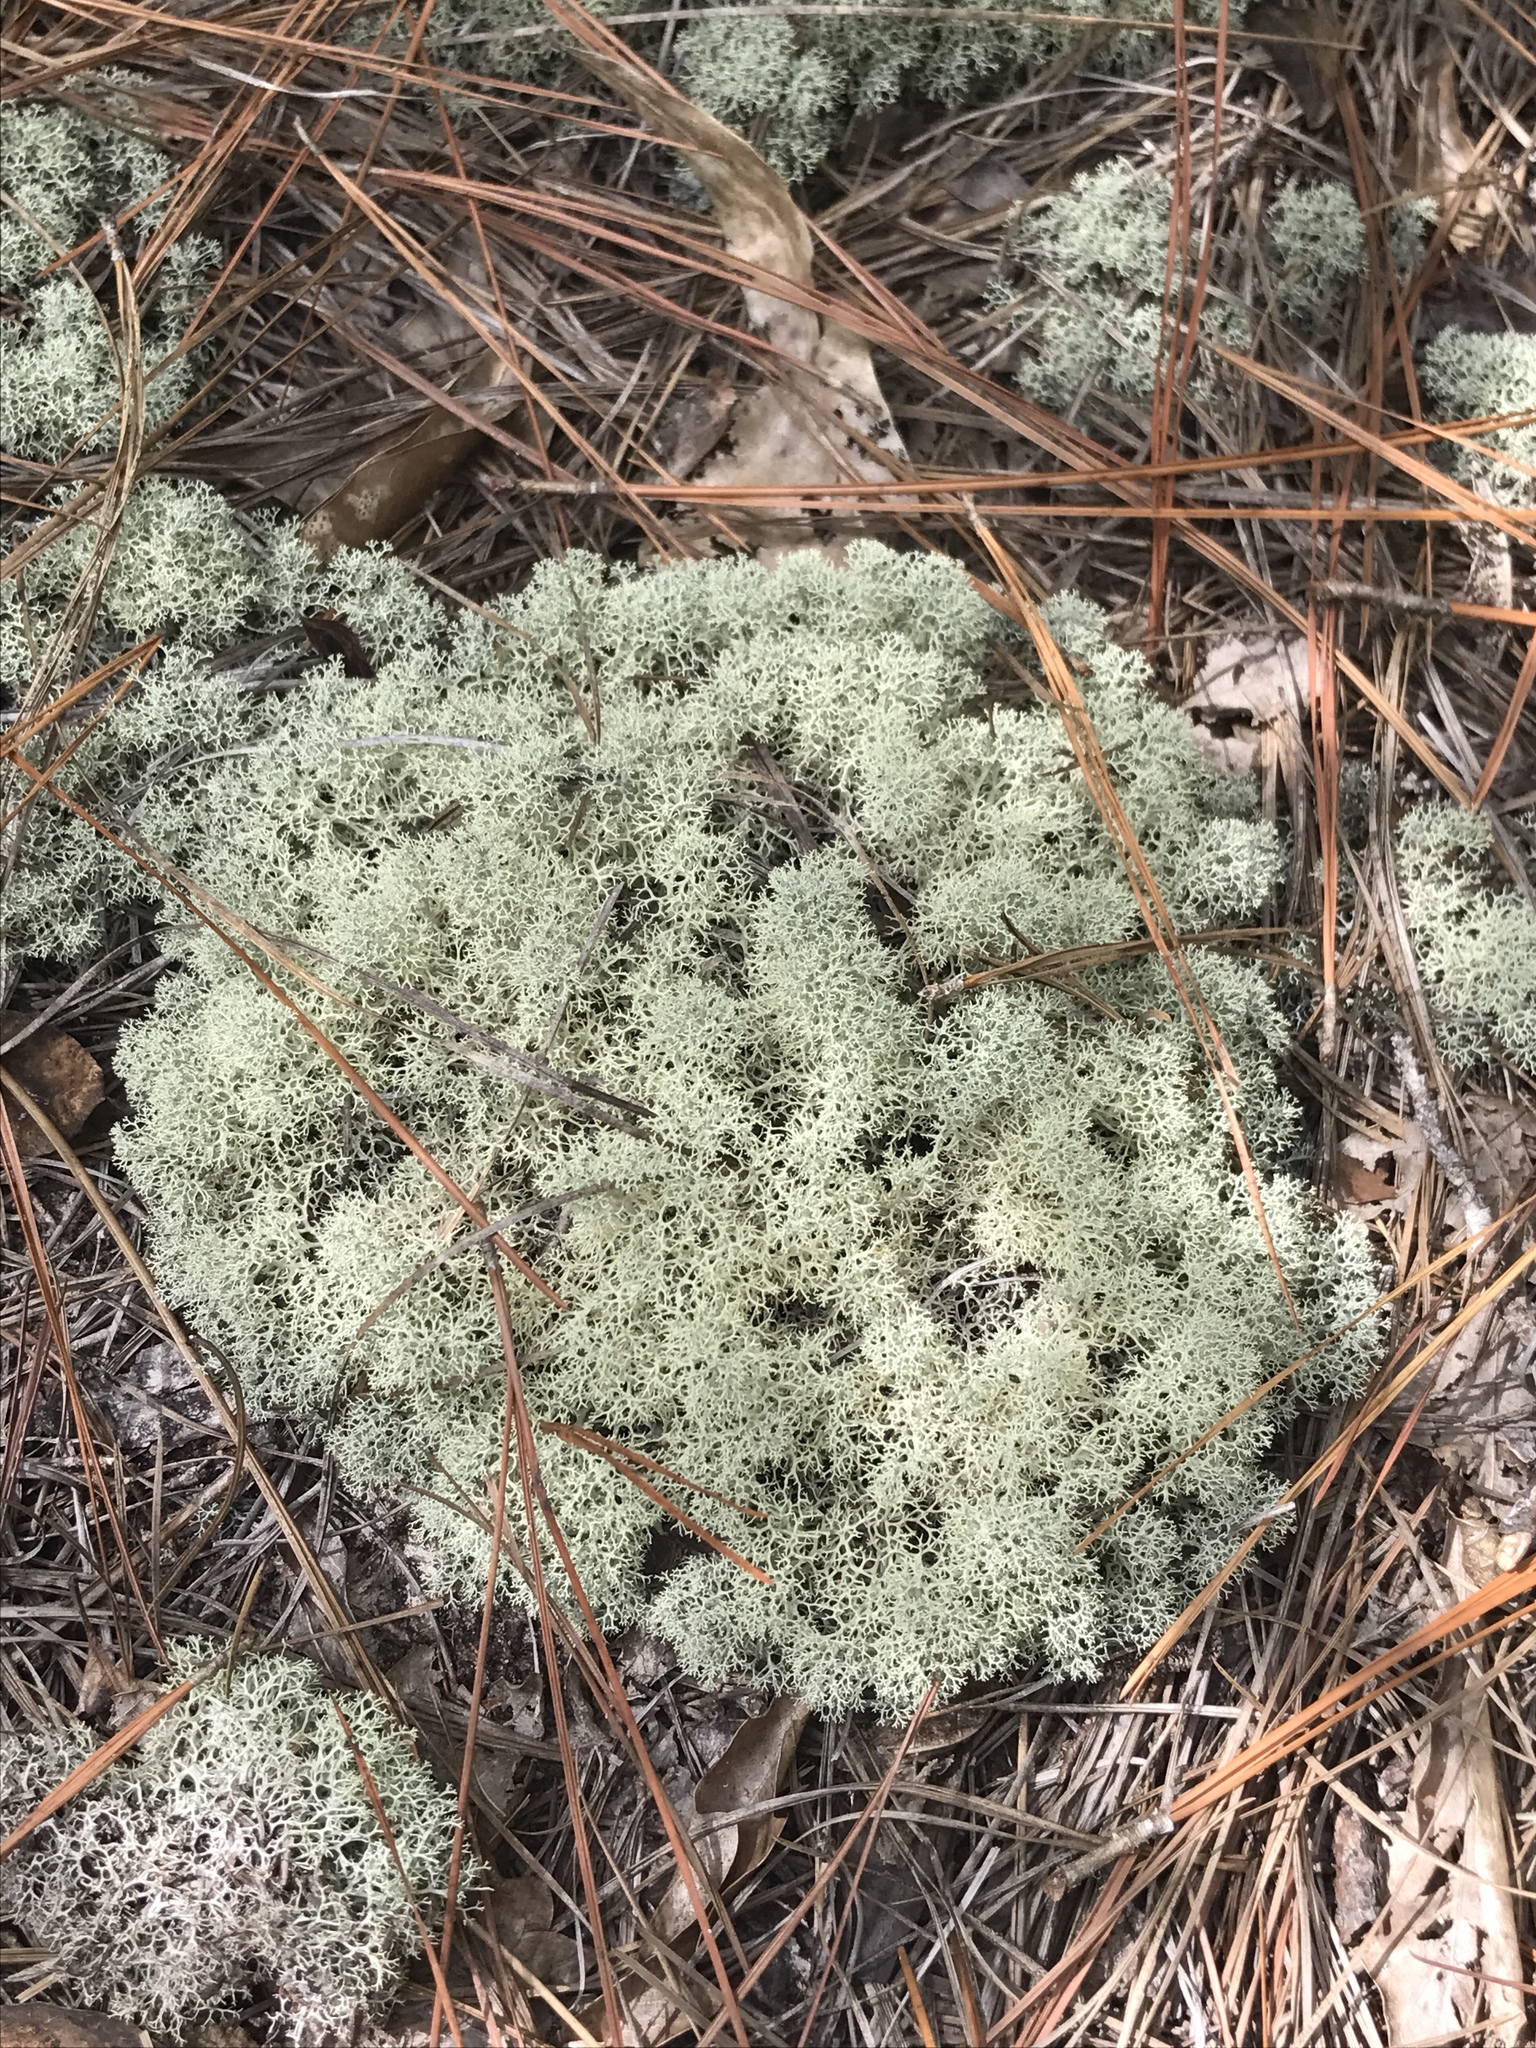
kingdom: Fungi
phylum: Ascomycota
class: Lecanoromycetes
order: Lecanorales
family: Cladoniaceae
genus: Cladonia
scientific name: Cladonia subtenuis
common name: Dixie reindeer lichen
